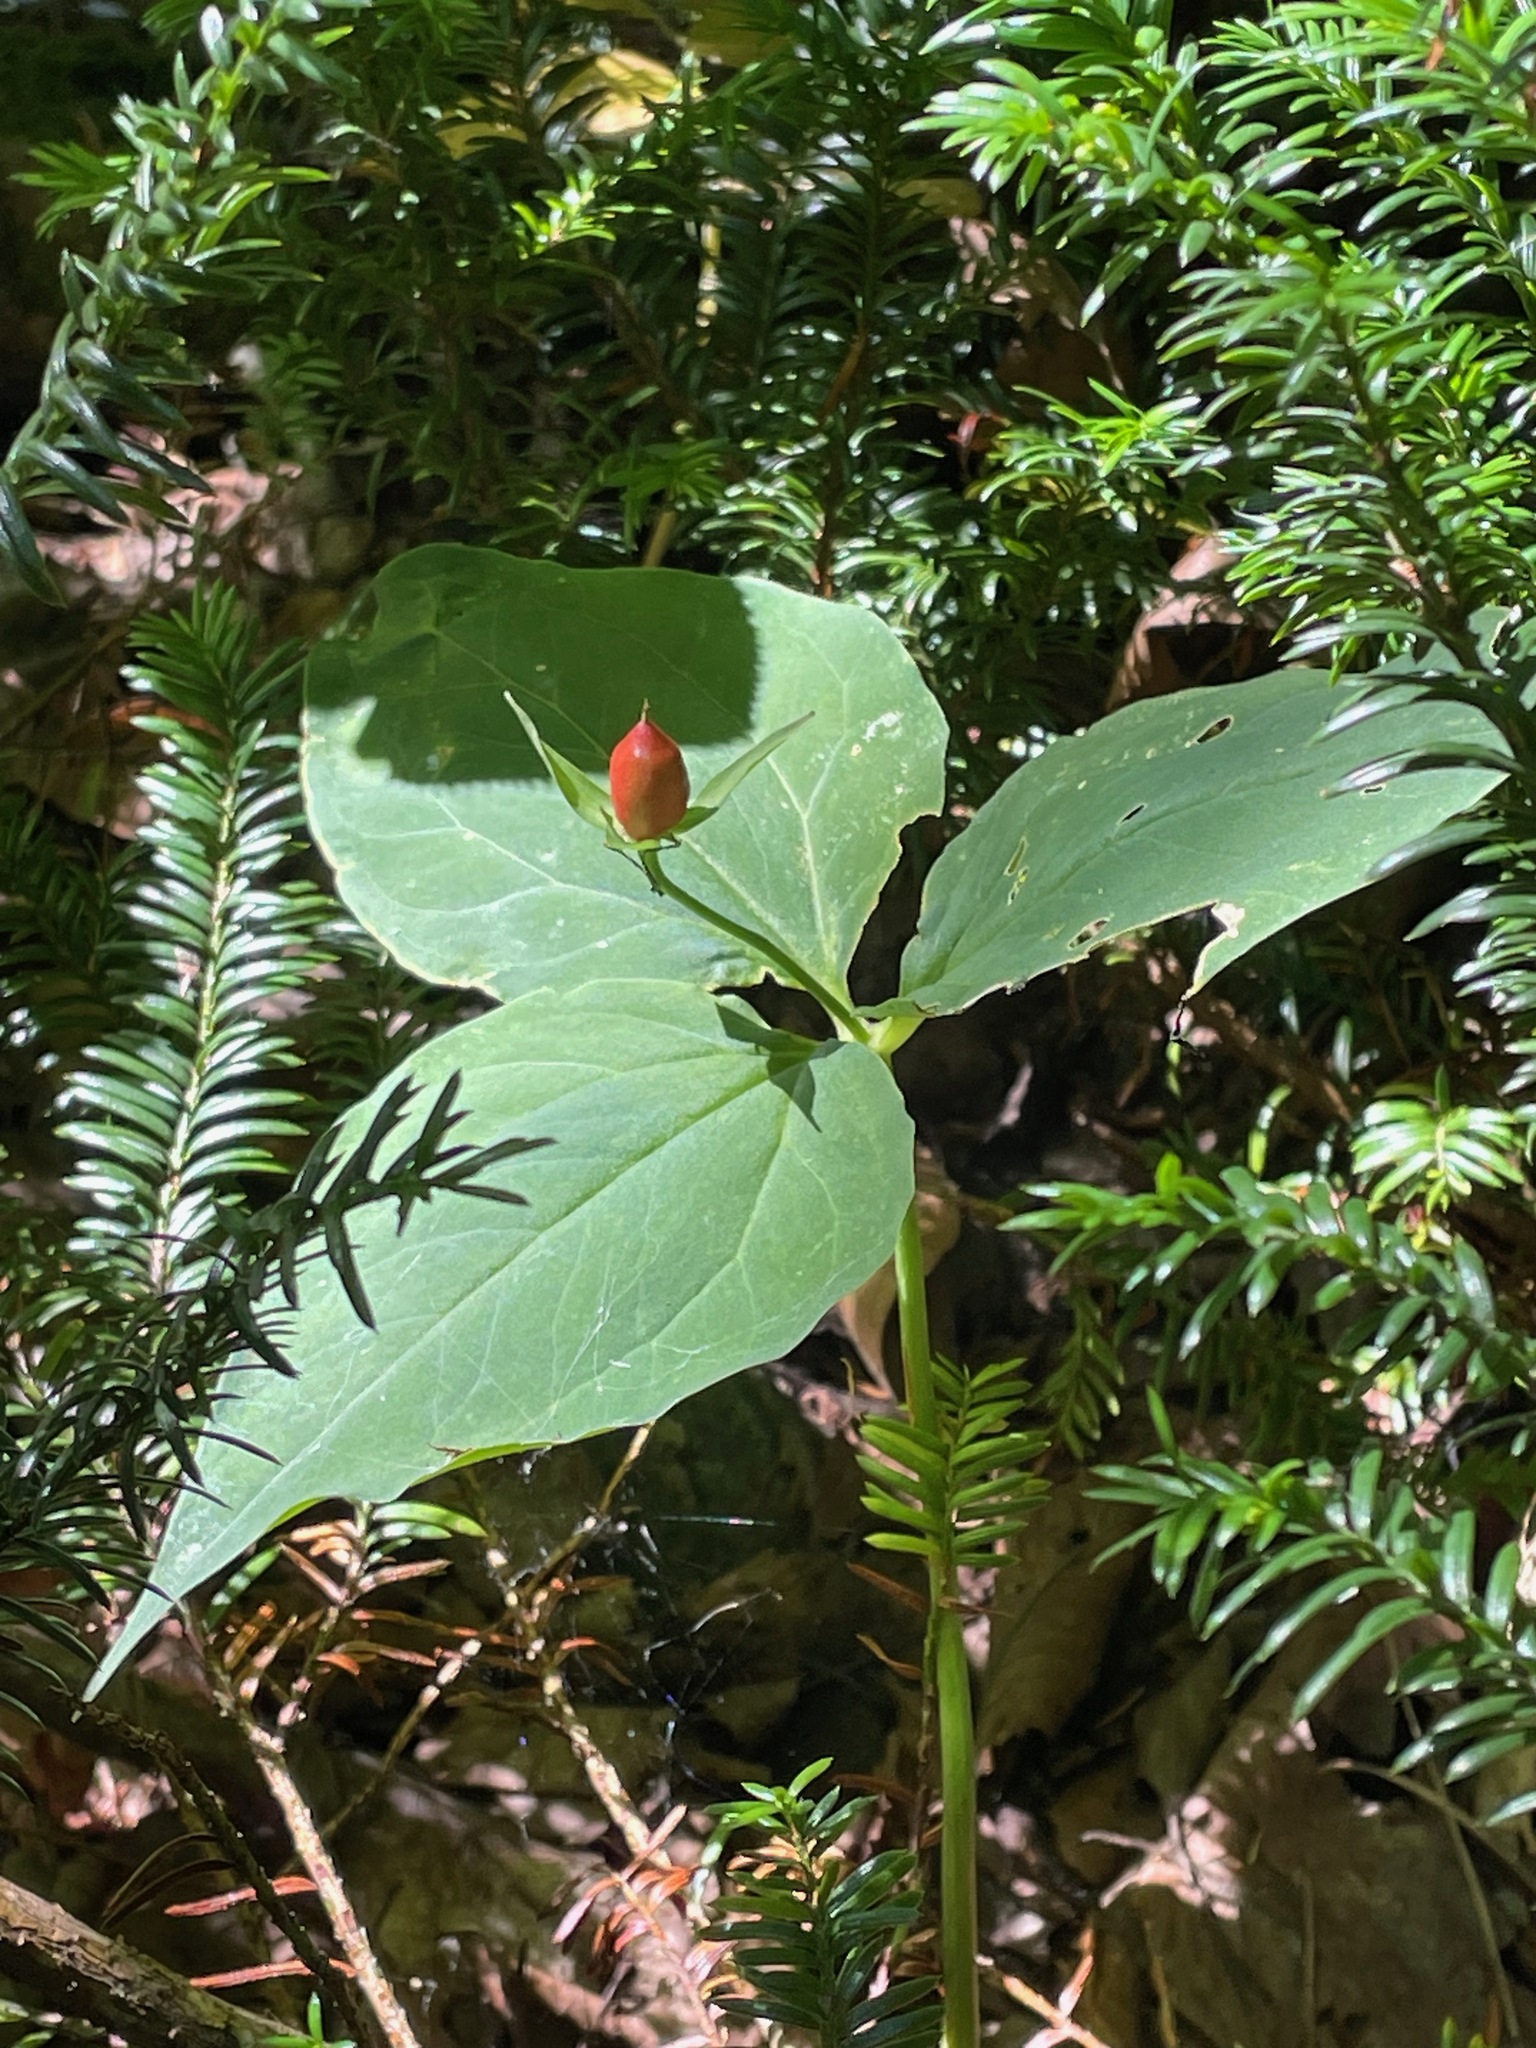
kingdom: Plantae
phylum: Tracheophyta
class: Liliopsida
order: Liliales
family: Melanthiaceae
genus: Trillium
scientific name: Trillium undulatum
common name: Paint trillium
